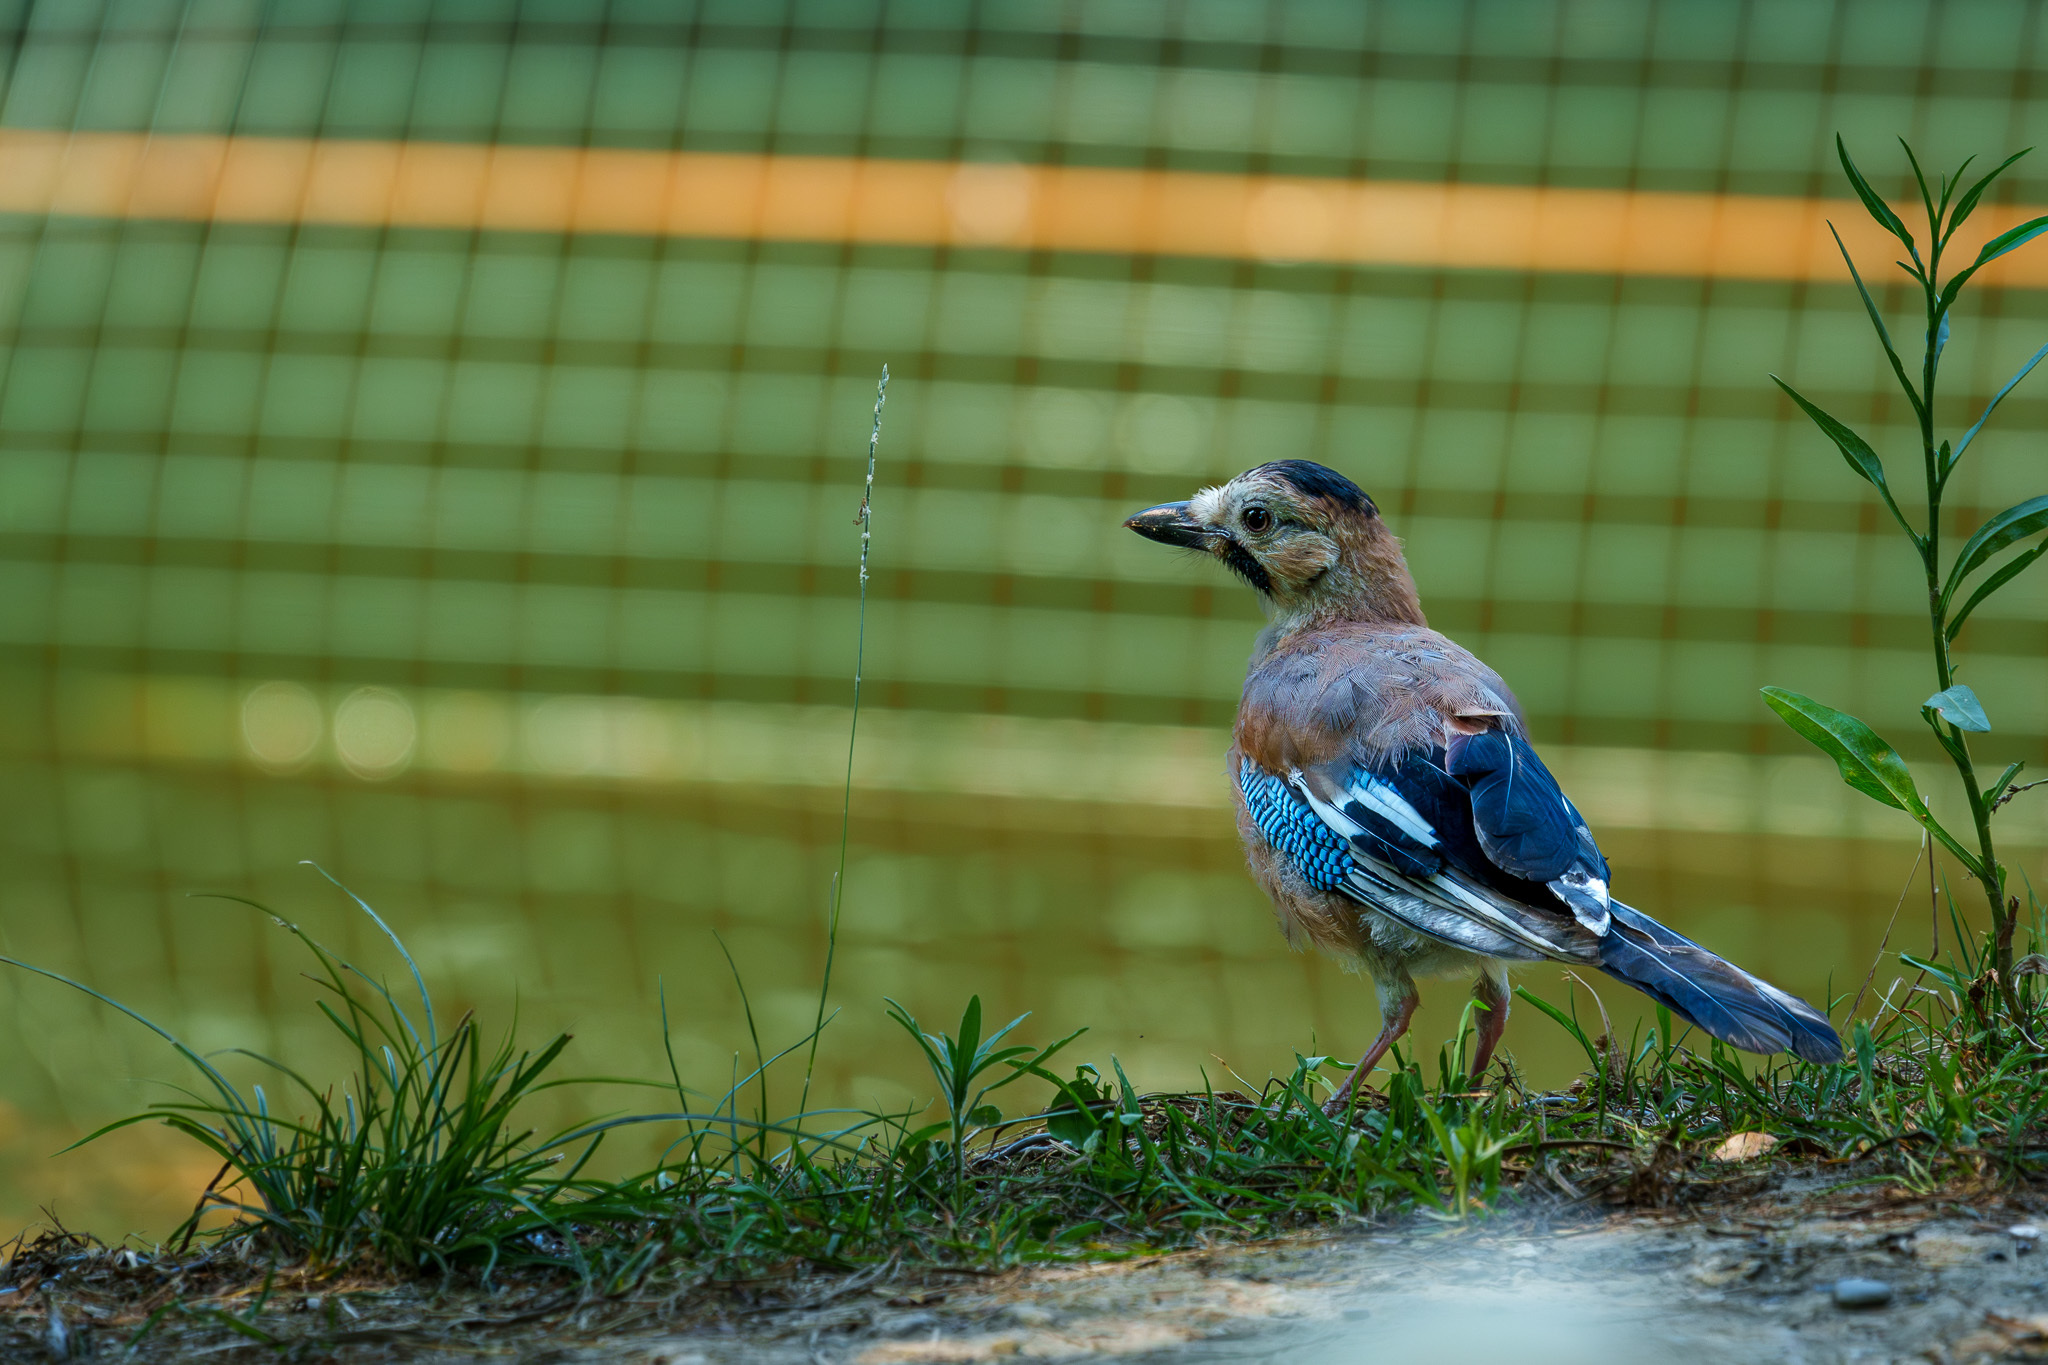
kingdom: Animalia
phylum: Chordata
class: Aves
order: Passeriformes
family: Corvidae
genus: Garrulus
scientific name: Garrulus glandarius
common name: Eurasian jay
